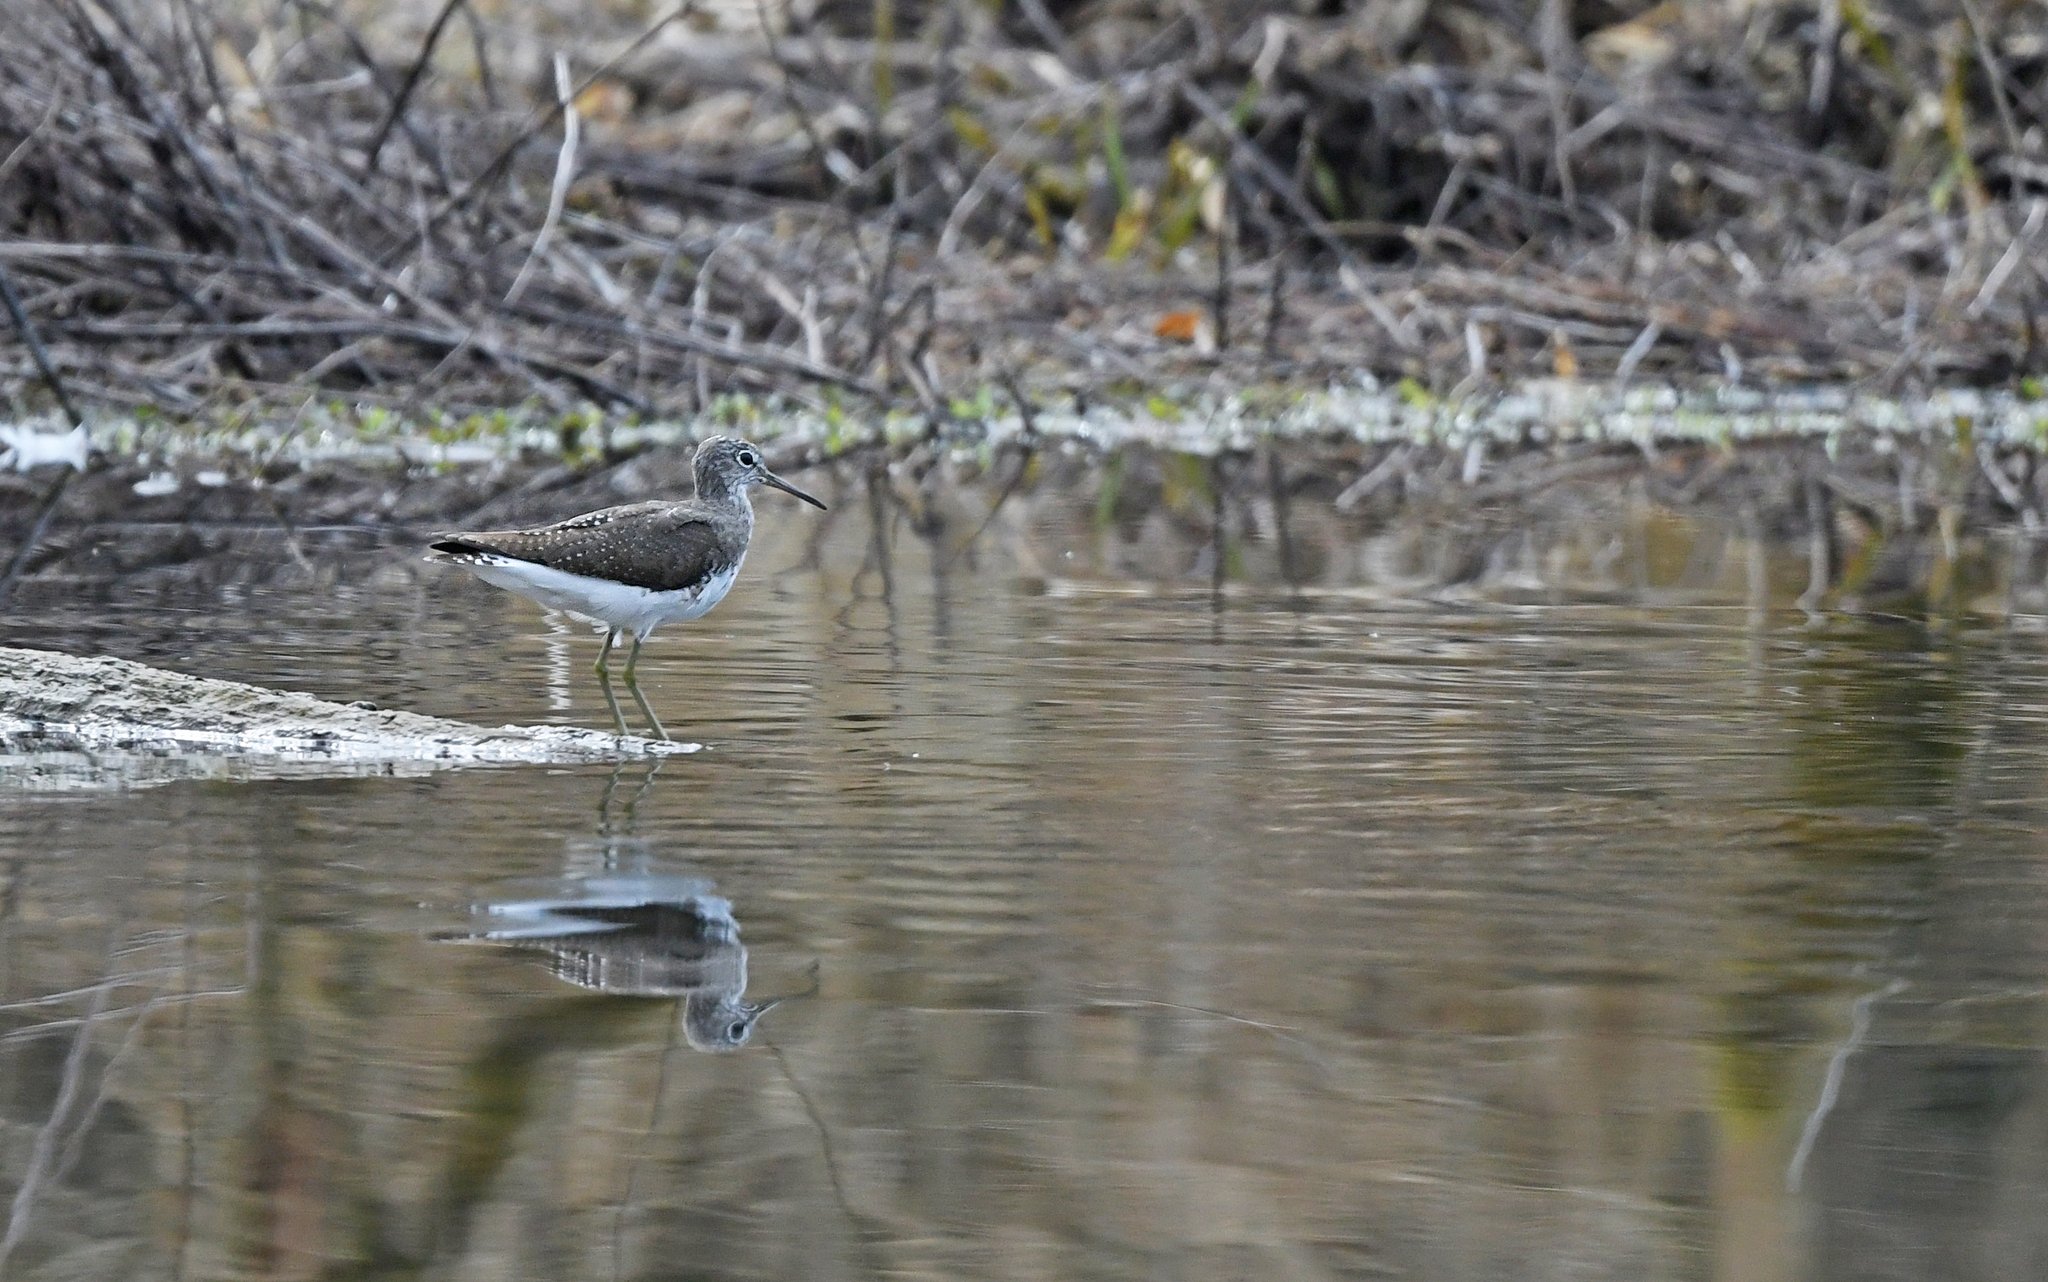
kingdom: Animalia
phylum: Chordata
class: Aves
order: Charadriiformes
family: Scolopacidae
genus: Tringa
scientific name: Tringa ochropus
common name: Green sandpiper
